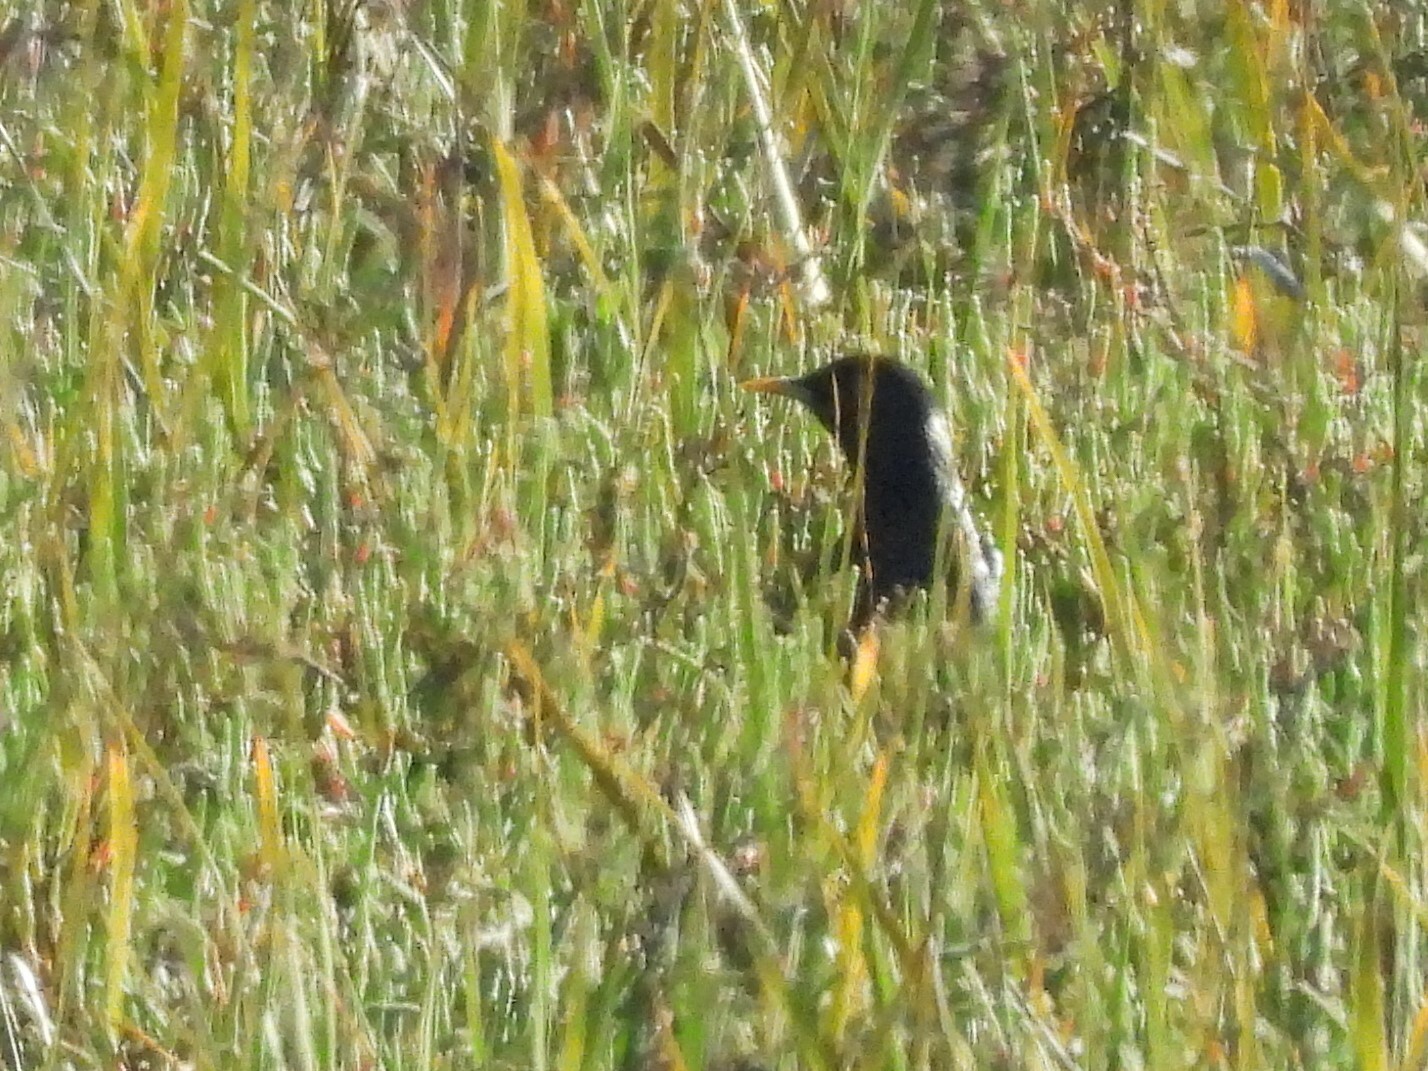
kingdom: Animalia
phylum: Chordata
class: Aves
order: Passeriformes
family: Sturnidae
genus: Sturnus
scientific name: Sturnus vulgaris
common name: Common starling
